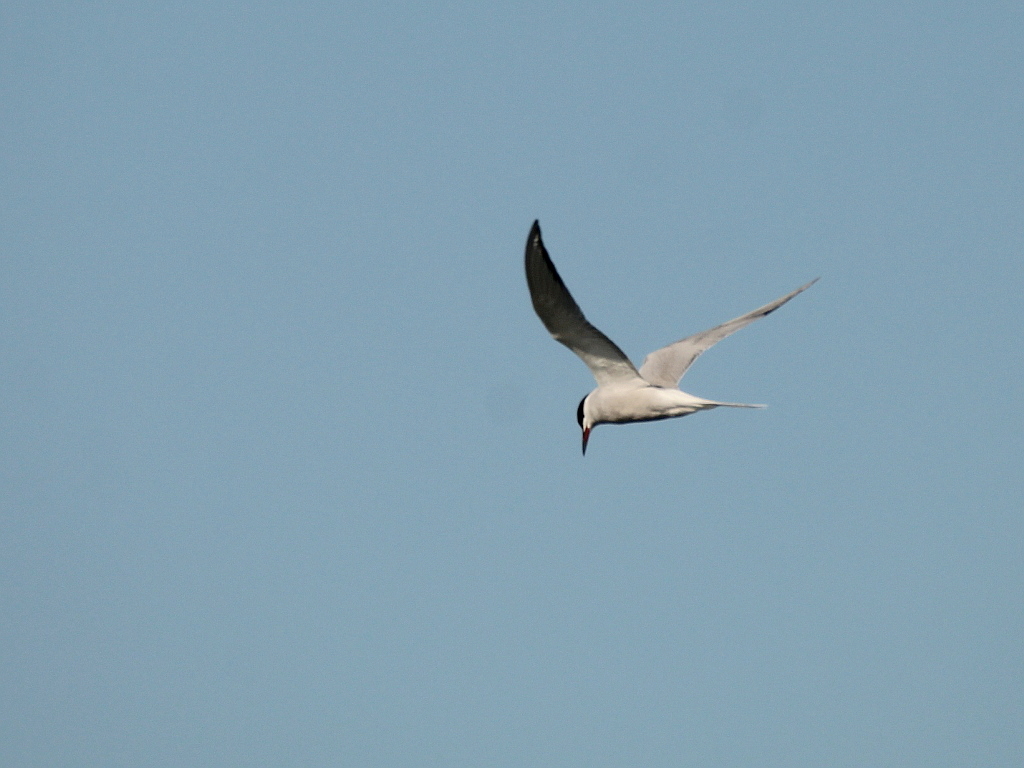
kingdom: Animalia
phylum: Chordata
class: Aves
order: Charadriiformes
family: Laridae
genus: Sterna
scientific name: Sterna hirundo
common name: Common tern
